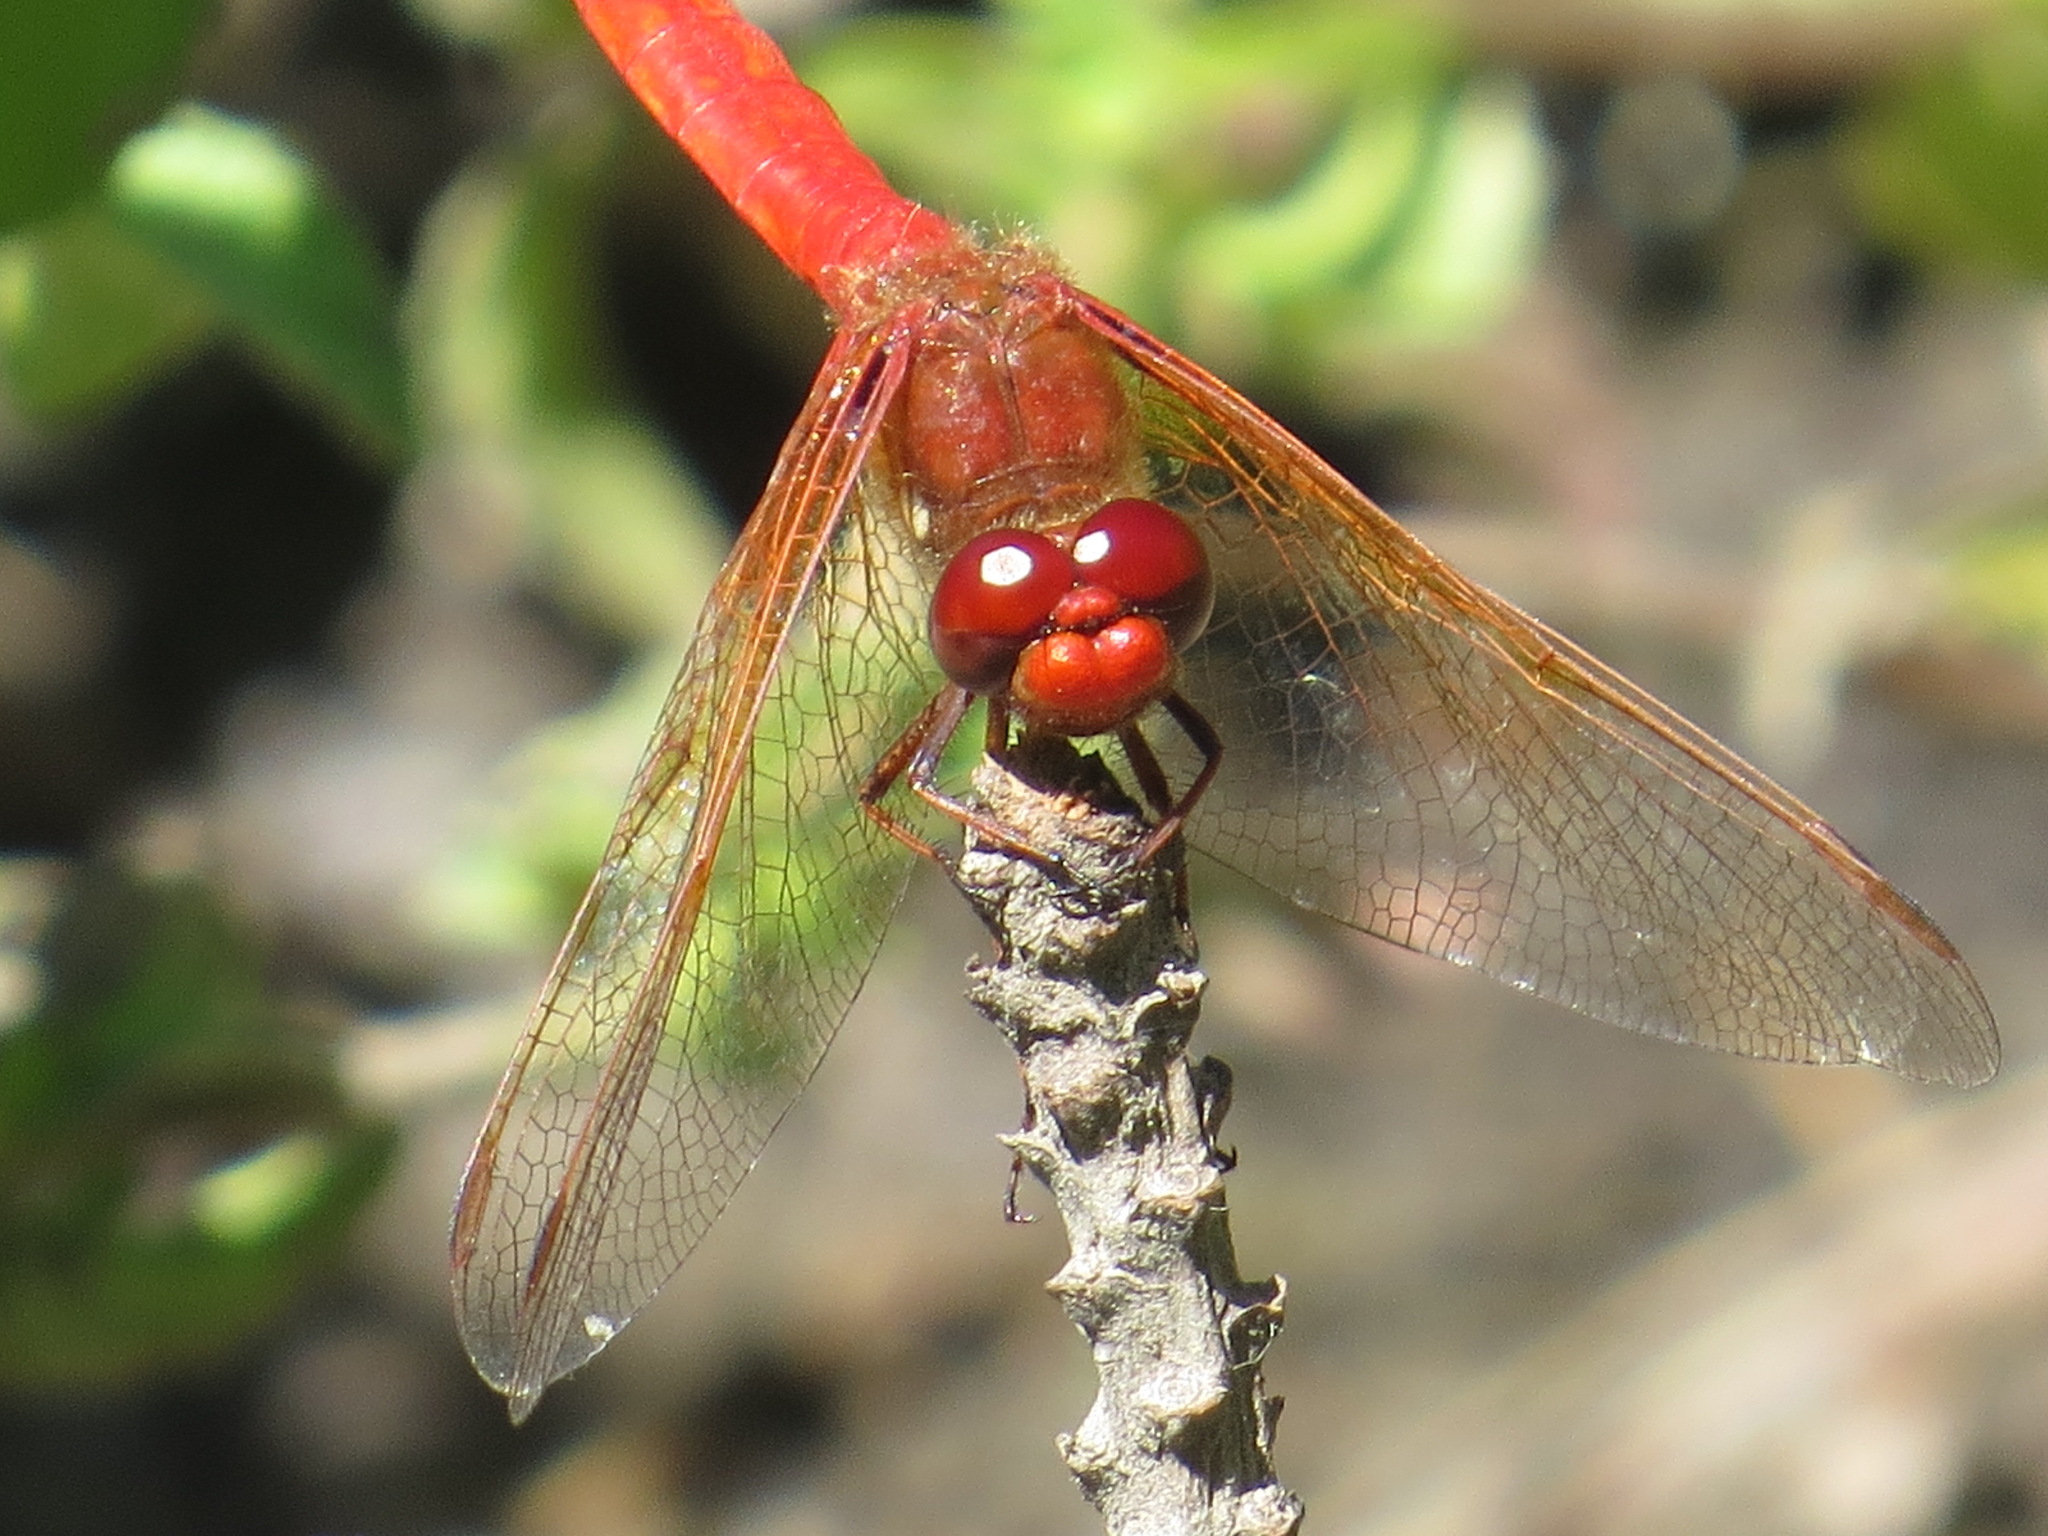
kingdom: Animalia
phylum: Arthropoda
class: Insecta
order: Odonata
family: Libellulidae
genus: Sympetrum
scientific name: Sympetrum illotum
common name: Cardinal meadowhawk
